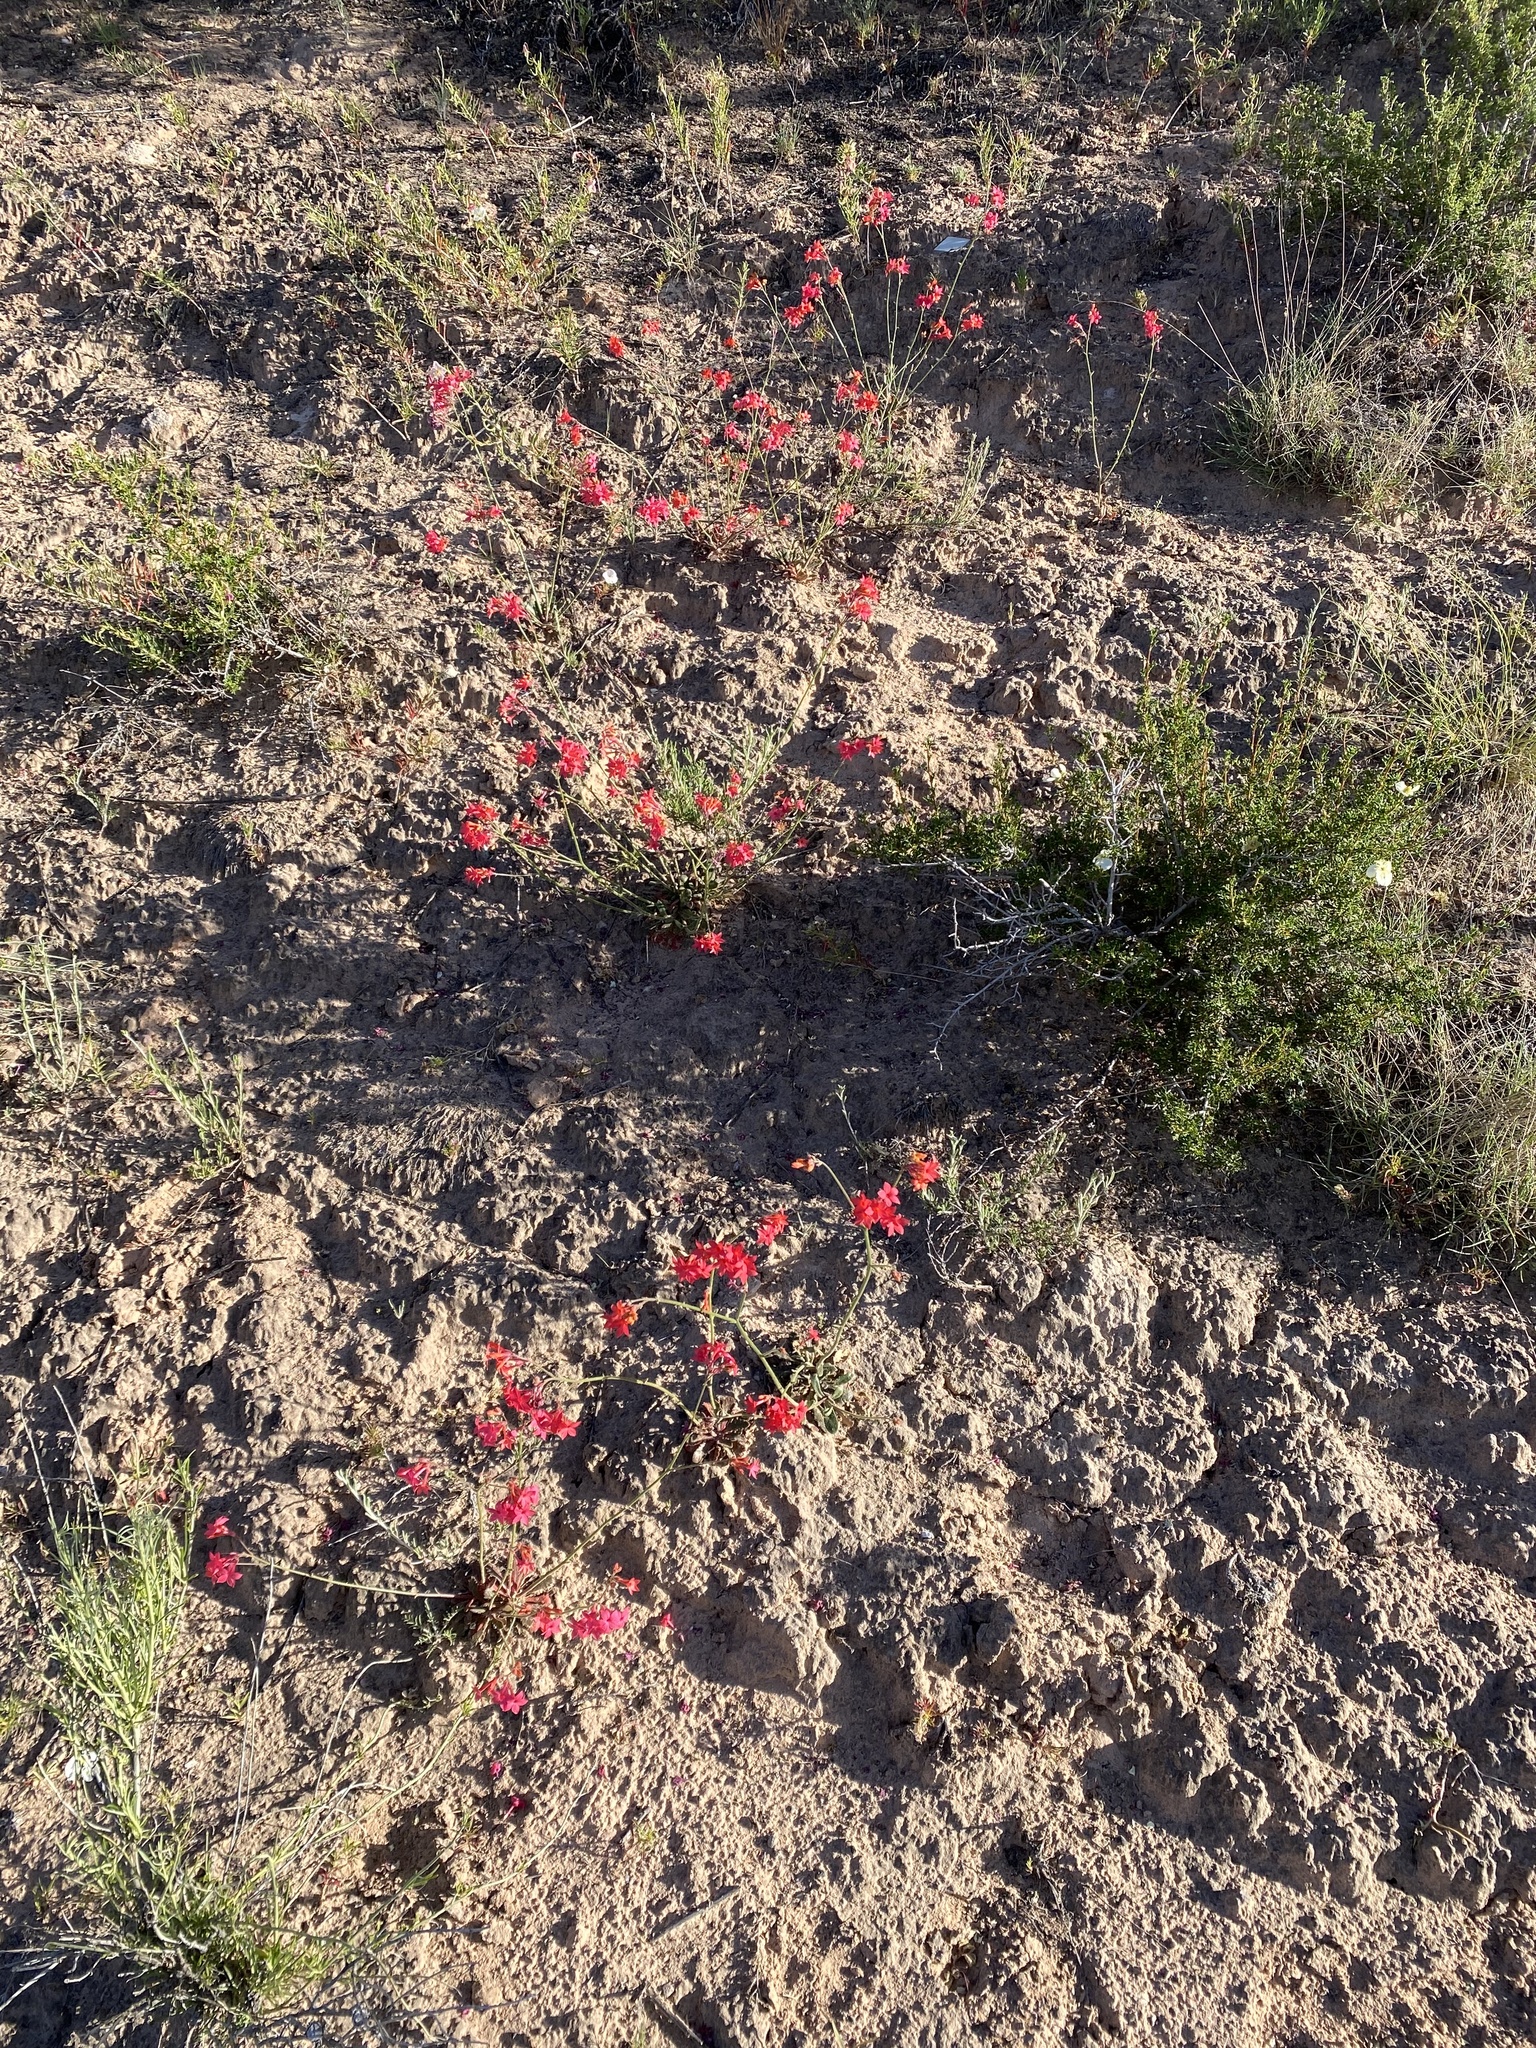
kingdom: Plantae
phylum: Tracheophyta
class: Magnoliopsida
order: Ericales
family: Polemoniaceae
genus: Aliciella
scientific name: Aliciella subnuda
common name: Coral gilia
